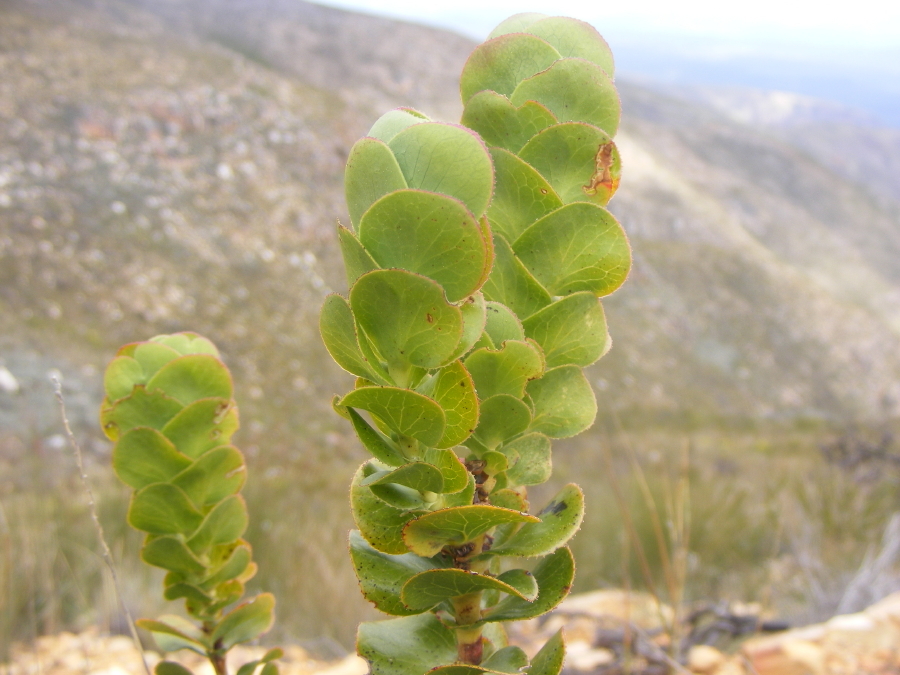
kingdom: Plantae
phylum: Tracheophyta
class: Magnoliopsida
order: Rosales
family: Rosaceae
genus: Cliffortia
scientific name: Cliffortia crenata
